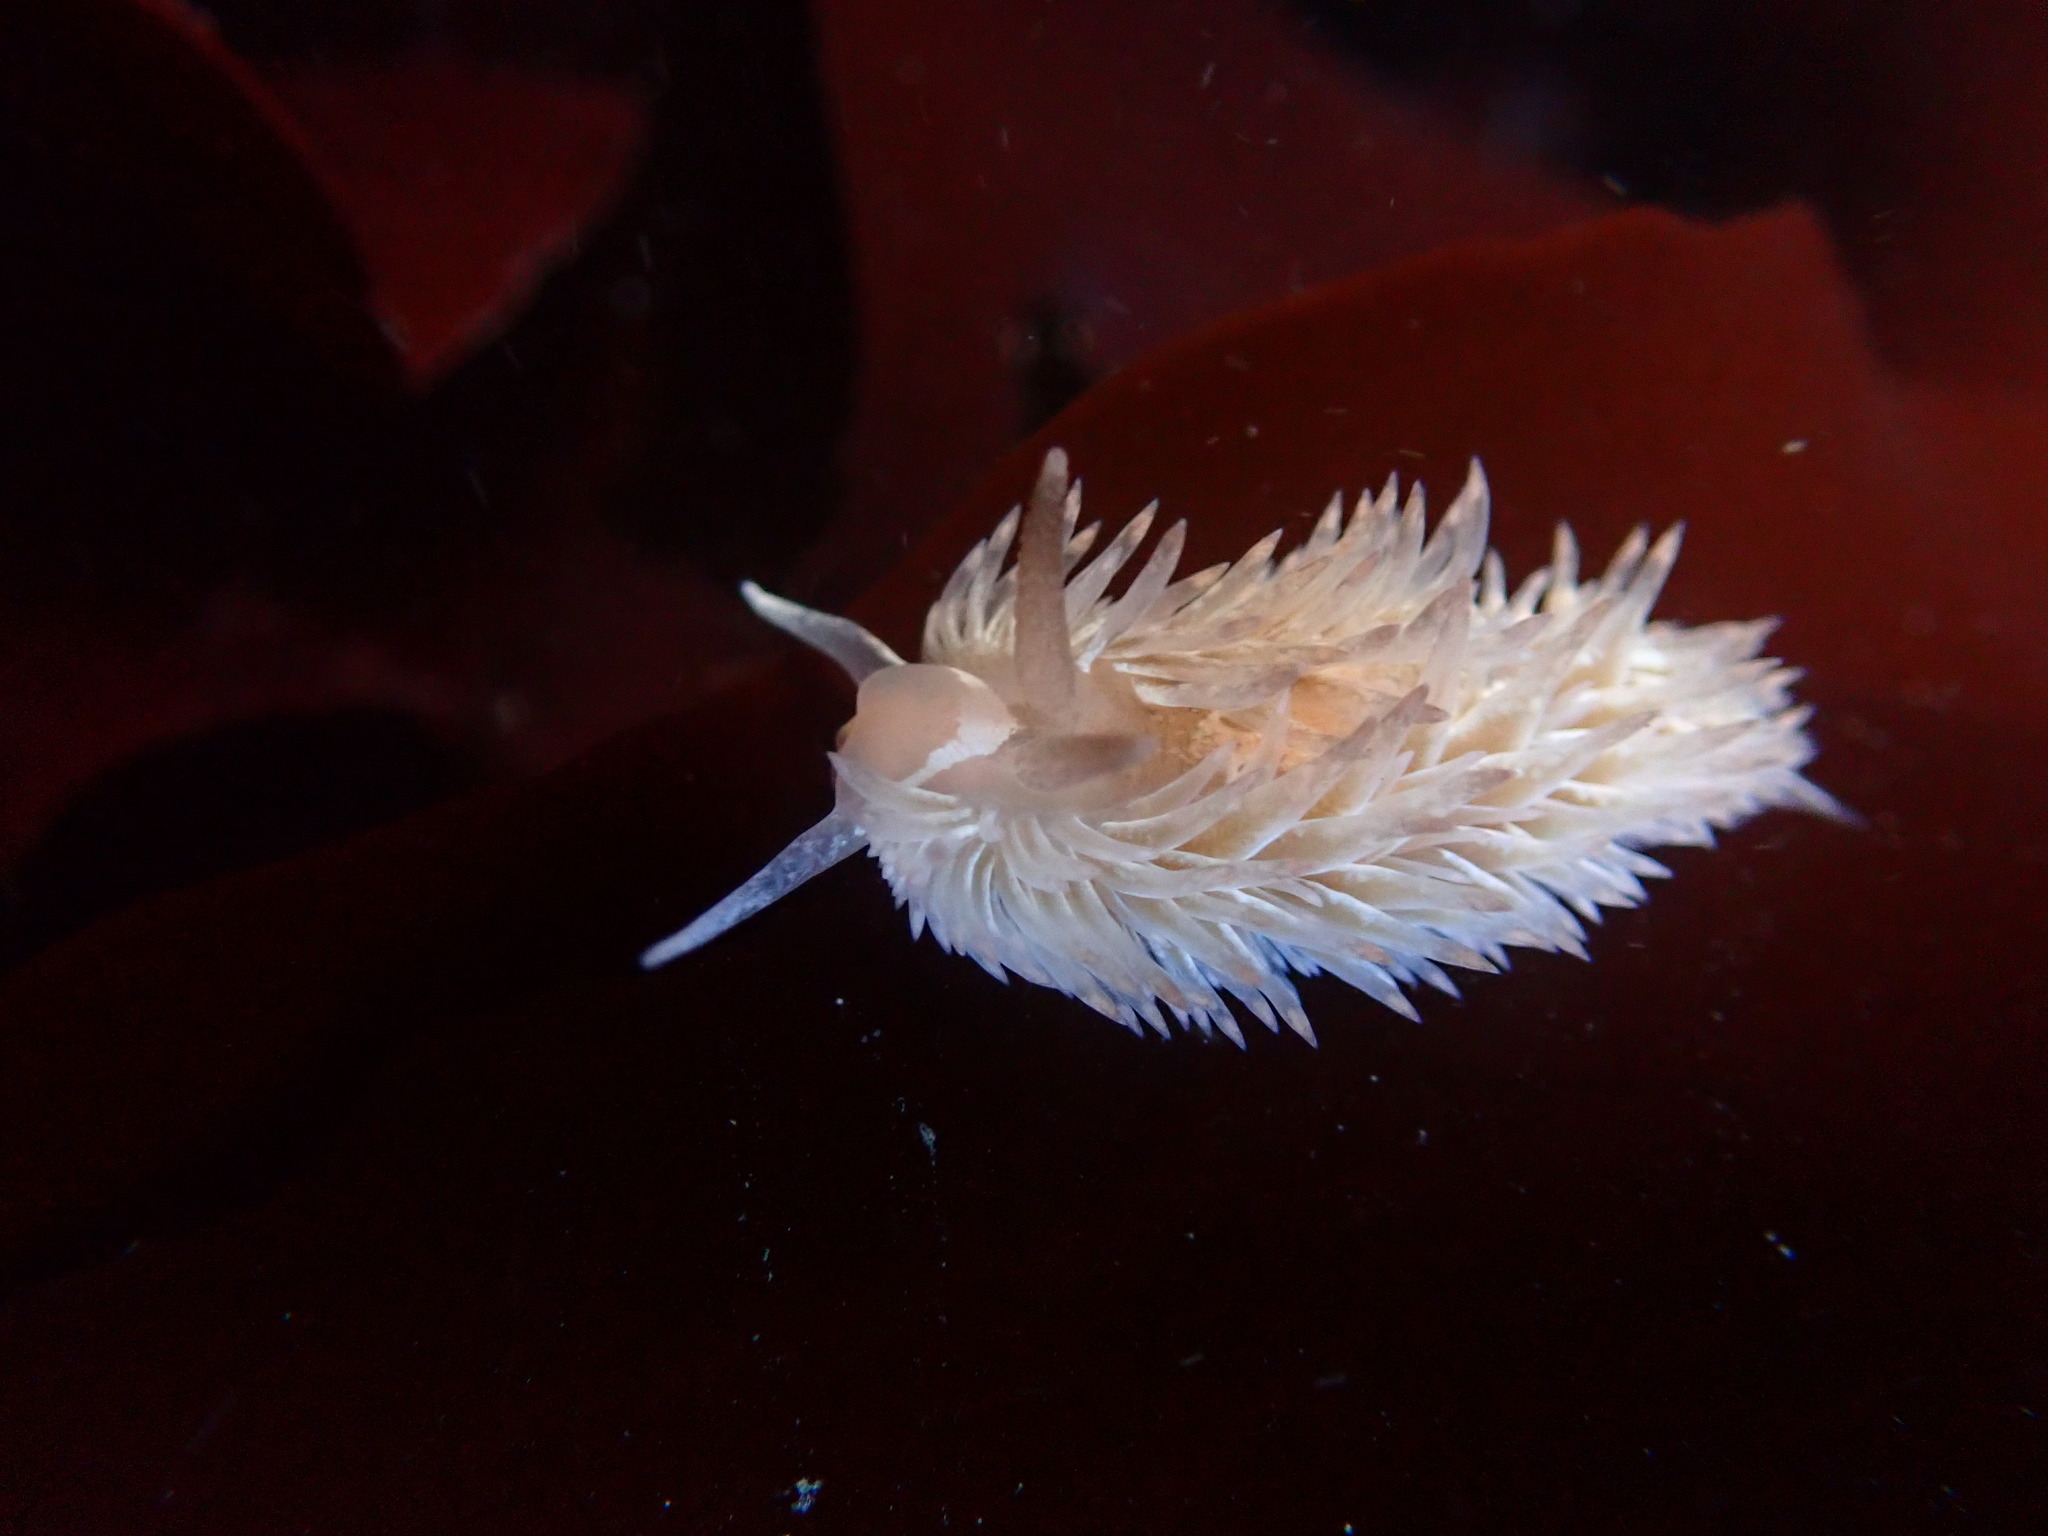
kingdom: Animalia
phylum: Mollusca
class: Gastropoda
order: Nudibranchia
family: Aeolidiidae
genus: Aeolidia
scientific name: Aeolidia loui
